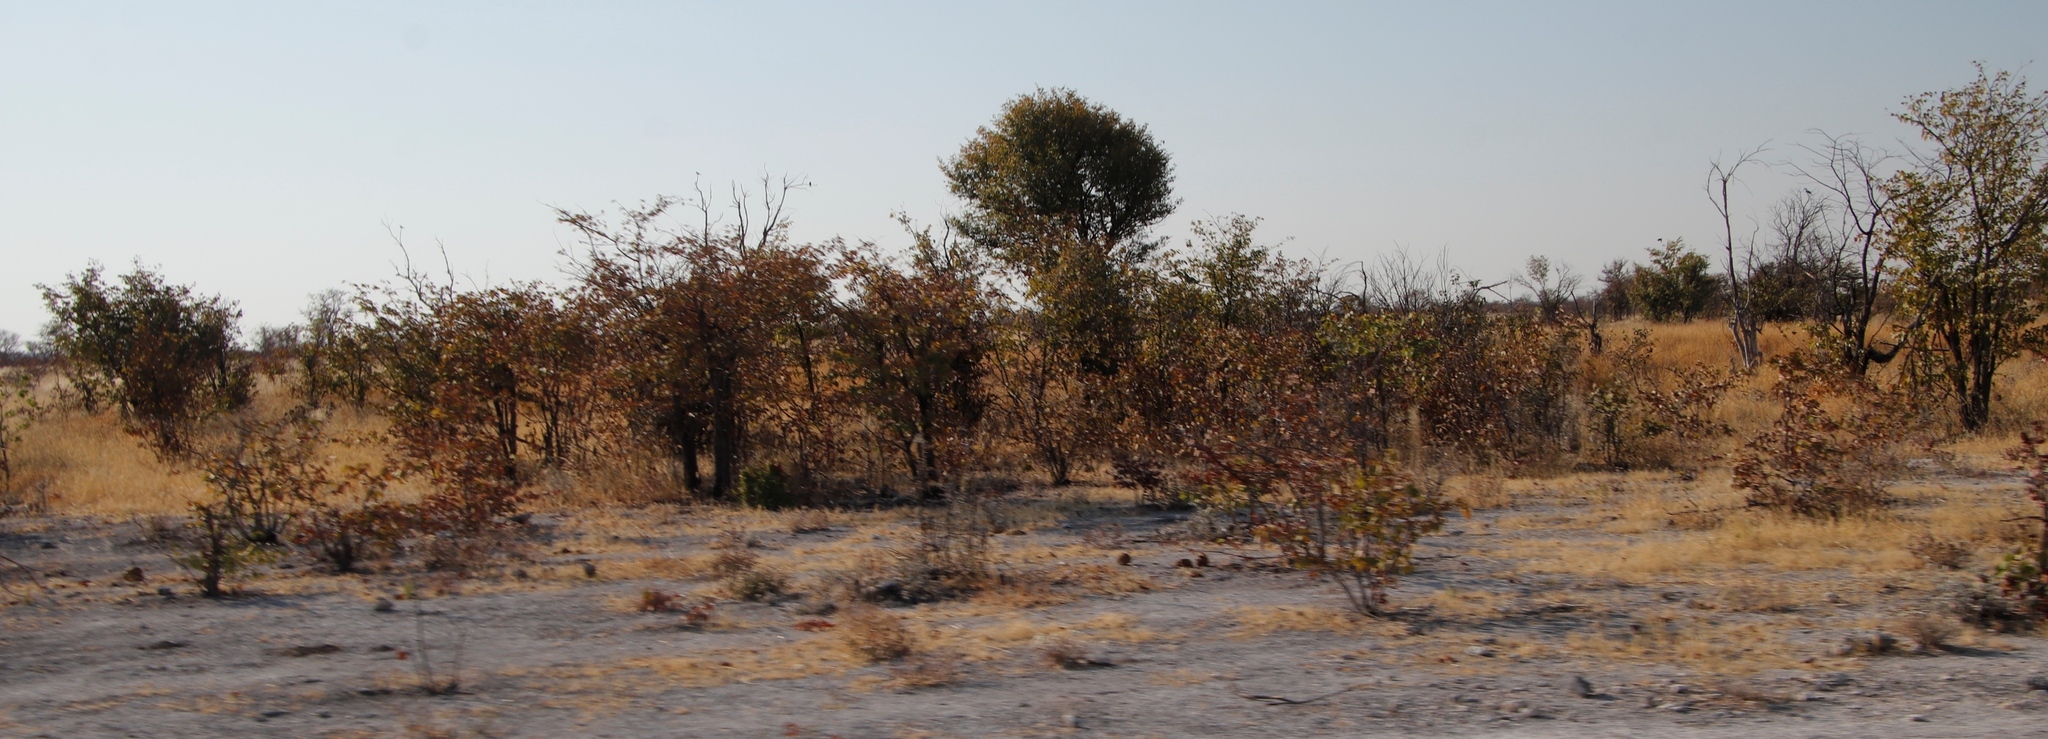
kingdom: Plantae
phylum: Tracheophyta
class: Magnoliopsida
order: Fabales
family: Fabaceae
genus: Colophospermum
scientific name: Colophospermum mopane
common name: Mopane
